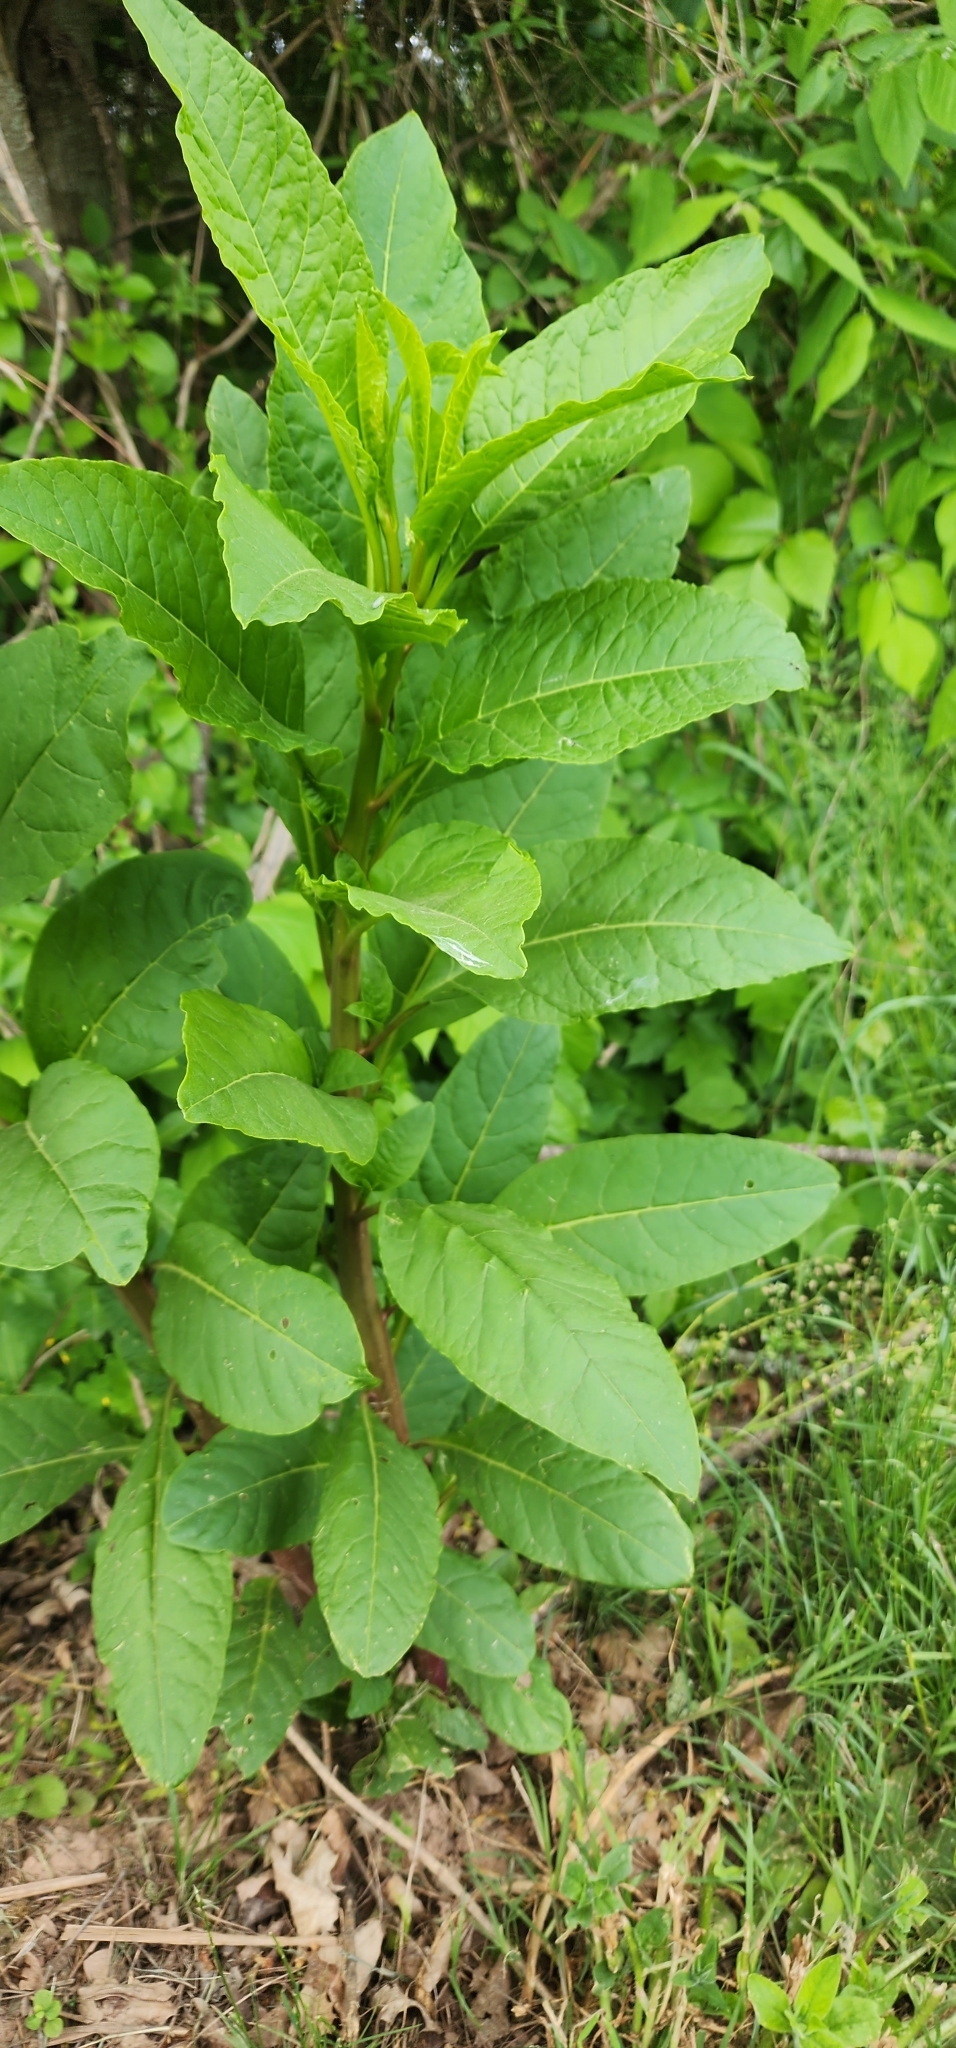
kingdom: Plantae
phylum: Tracheophyta
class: Magnoliopsida
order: Caryophyllales
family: Phytolaccaceae
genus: Phytolacca
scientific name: Phytolacca americana
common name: American pokeweed
